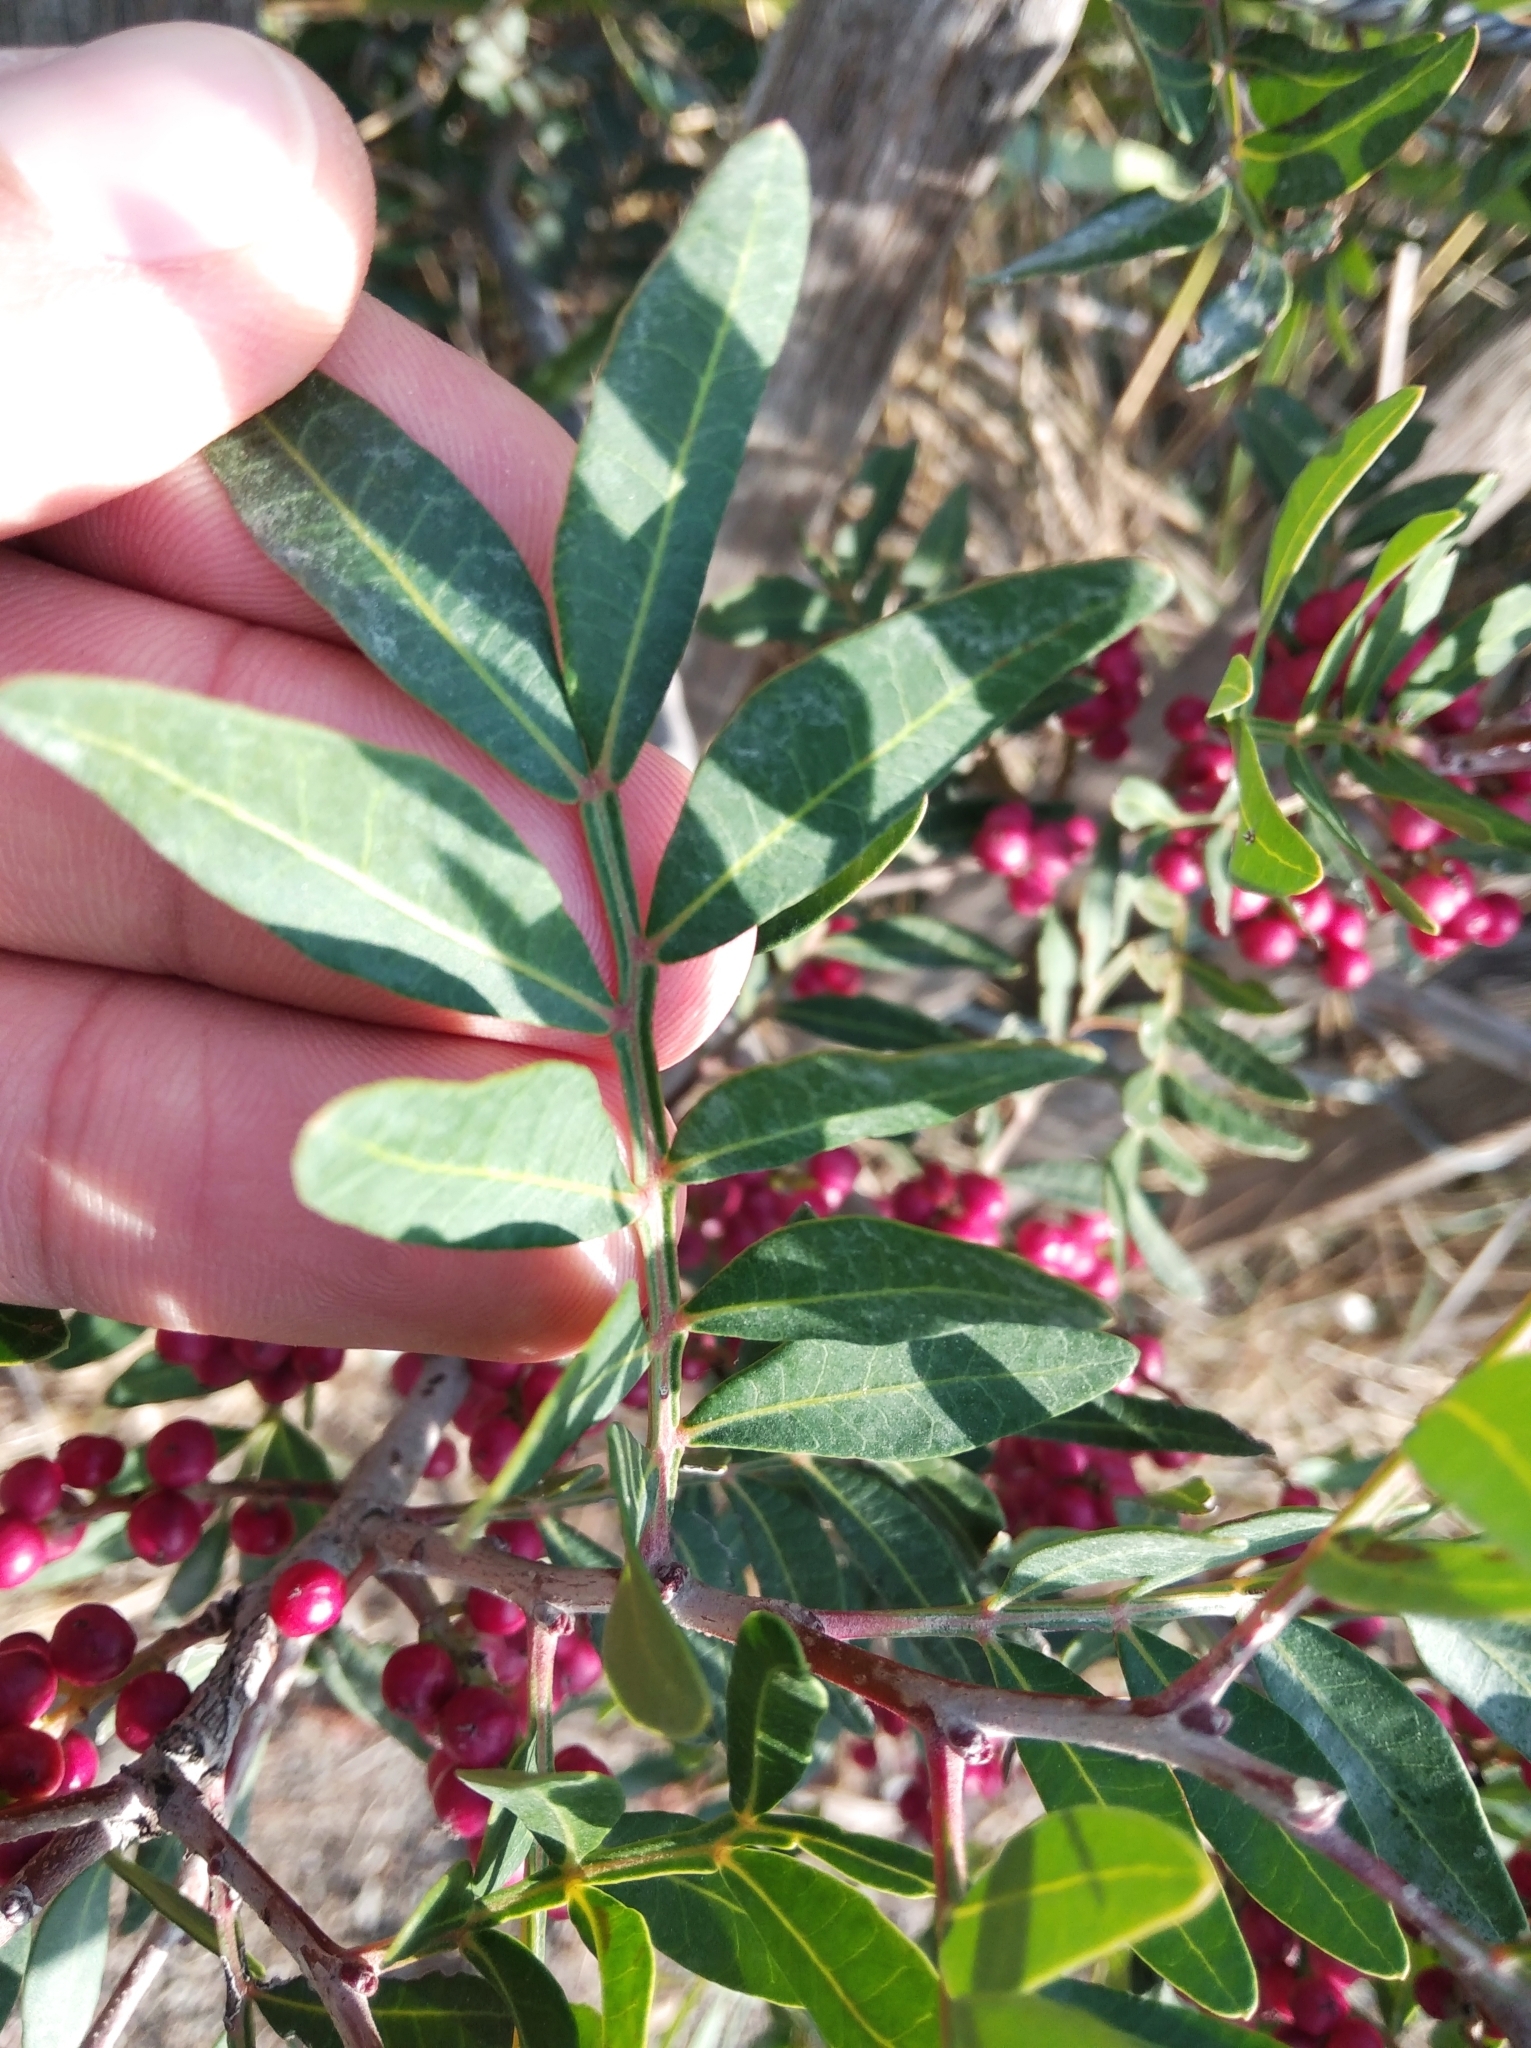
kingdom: Plantae
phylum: Tracheophyta
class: Magnoliopsida
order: Sapindales
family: Anacardiaceae
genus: Pistacia
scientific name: Pistacia lentiscus
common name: Lentisk
